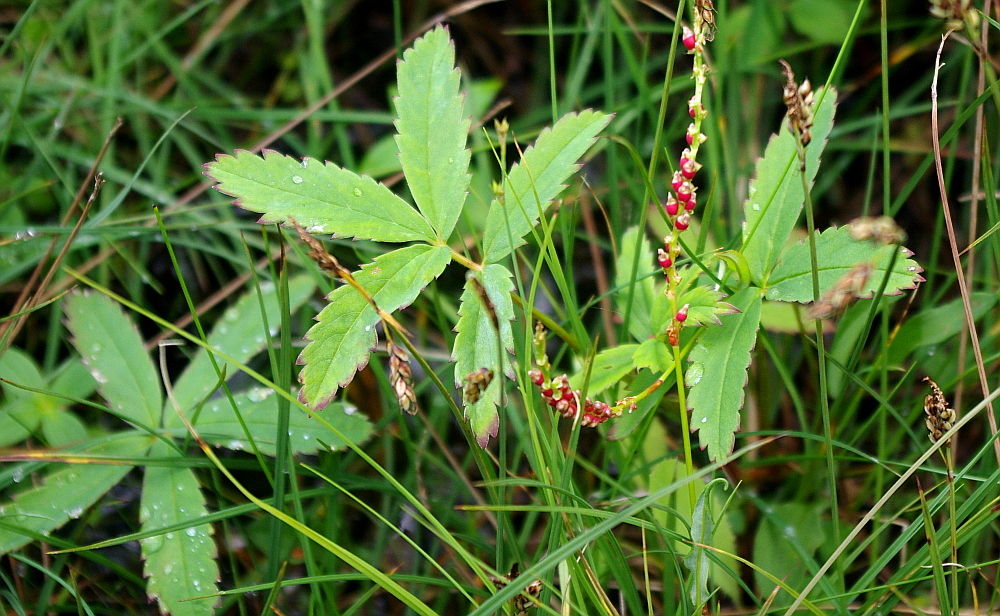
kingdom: Plantae
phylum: Tracheophyta
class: Magnoliopsida
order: Rosales
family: Rosaceae
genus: Comarum
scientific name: Comarum palustre
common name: Marsh cinquefoil
